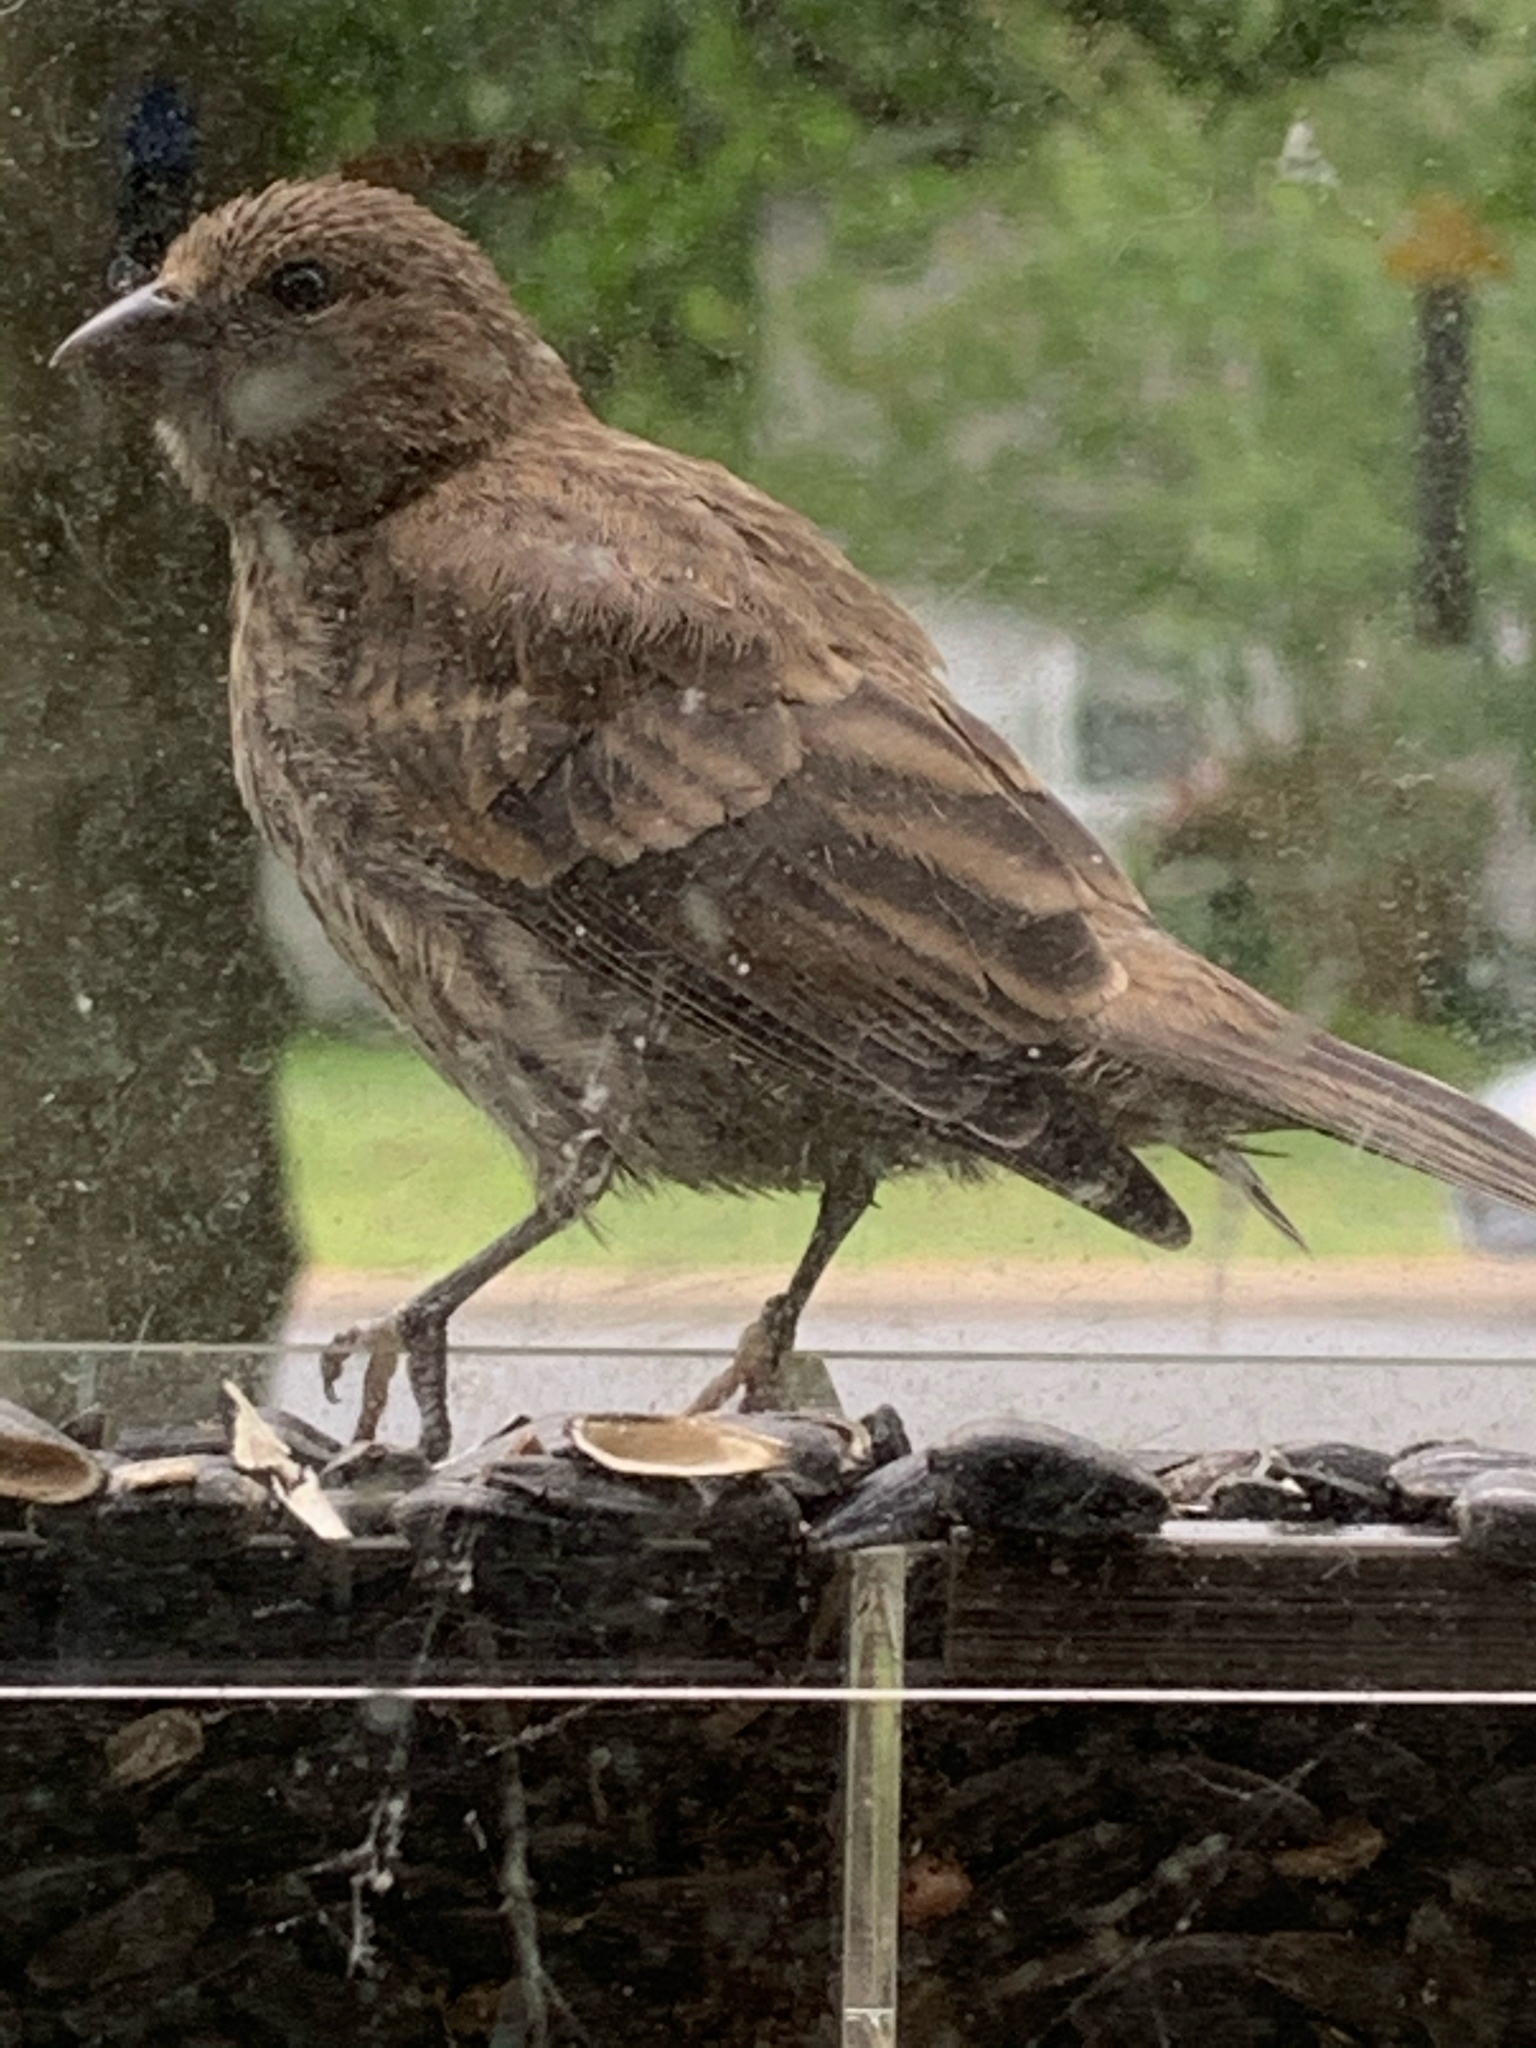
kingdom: Animalia
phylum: Chordata
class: Aves
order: Passeriformes
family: Fringillidae
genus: Haemorhous
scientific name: Haemorhous mexicanus
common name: House finch
